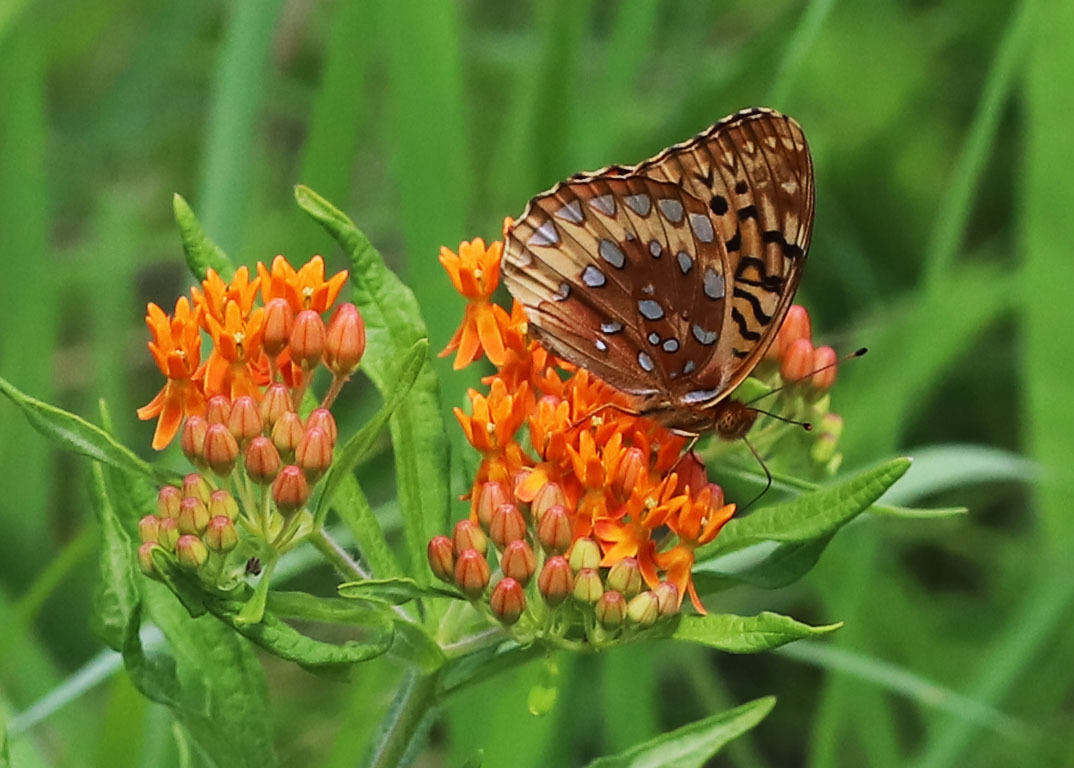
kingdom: Animalia
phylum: Arthropoda
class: Insecta
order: Lepidoptera
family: Nymphalidae
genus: Speyeria
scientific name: Speyeria cybele
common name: Great spangled fritillary
